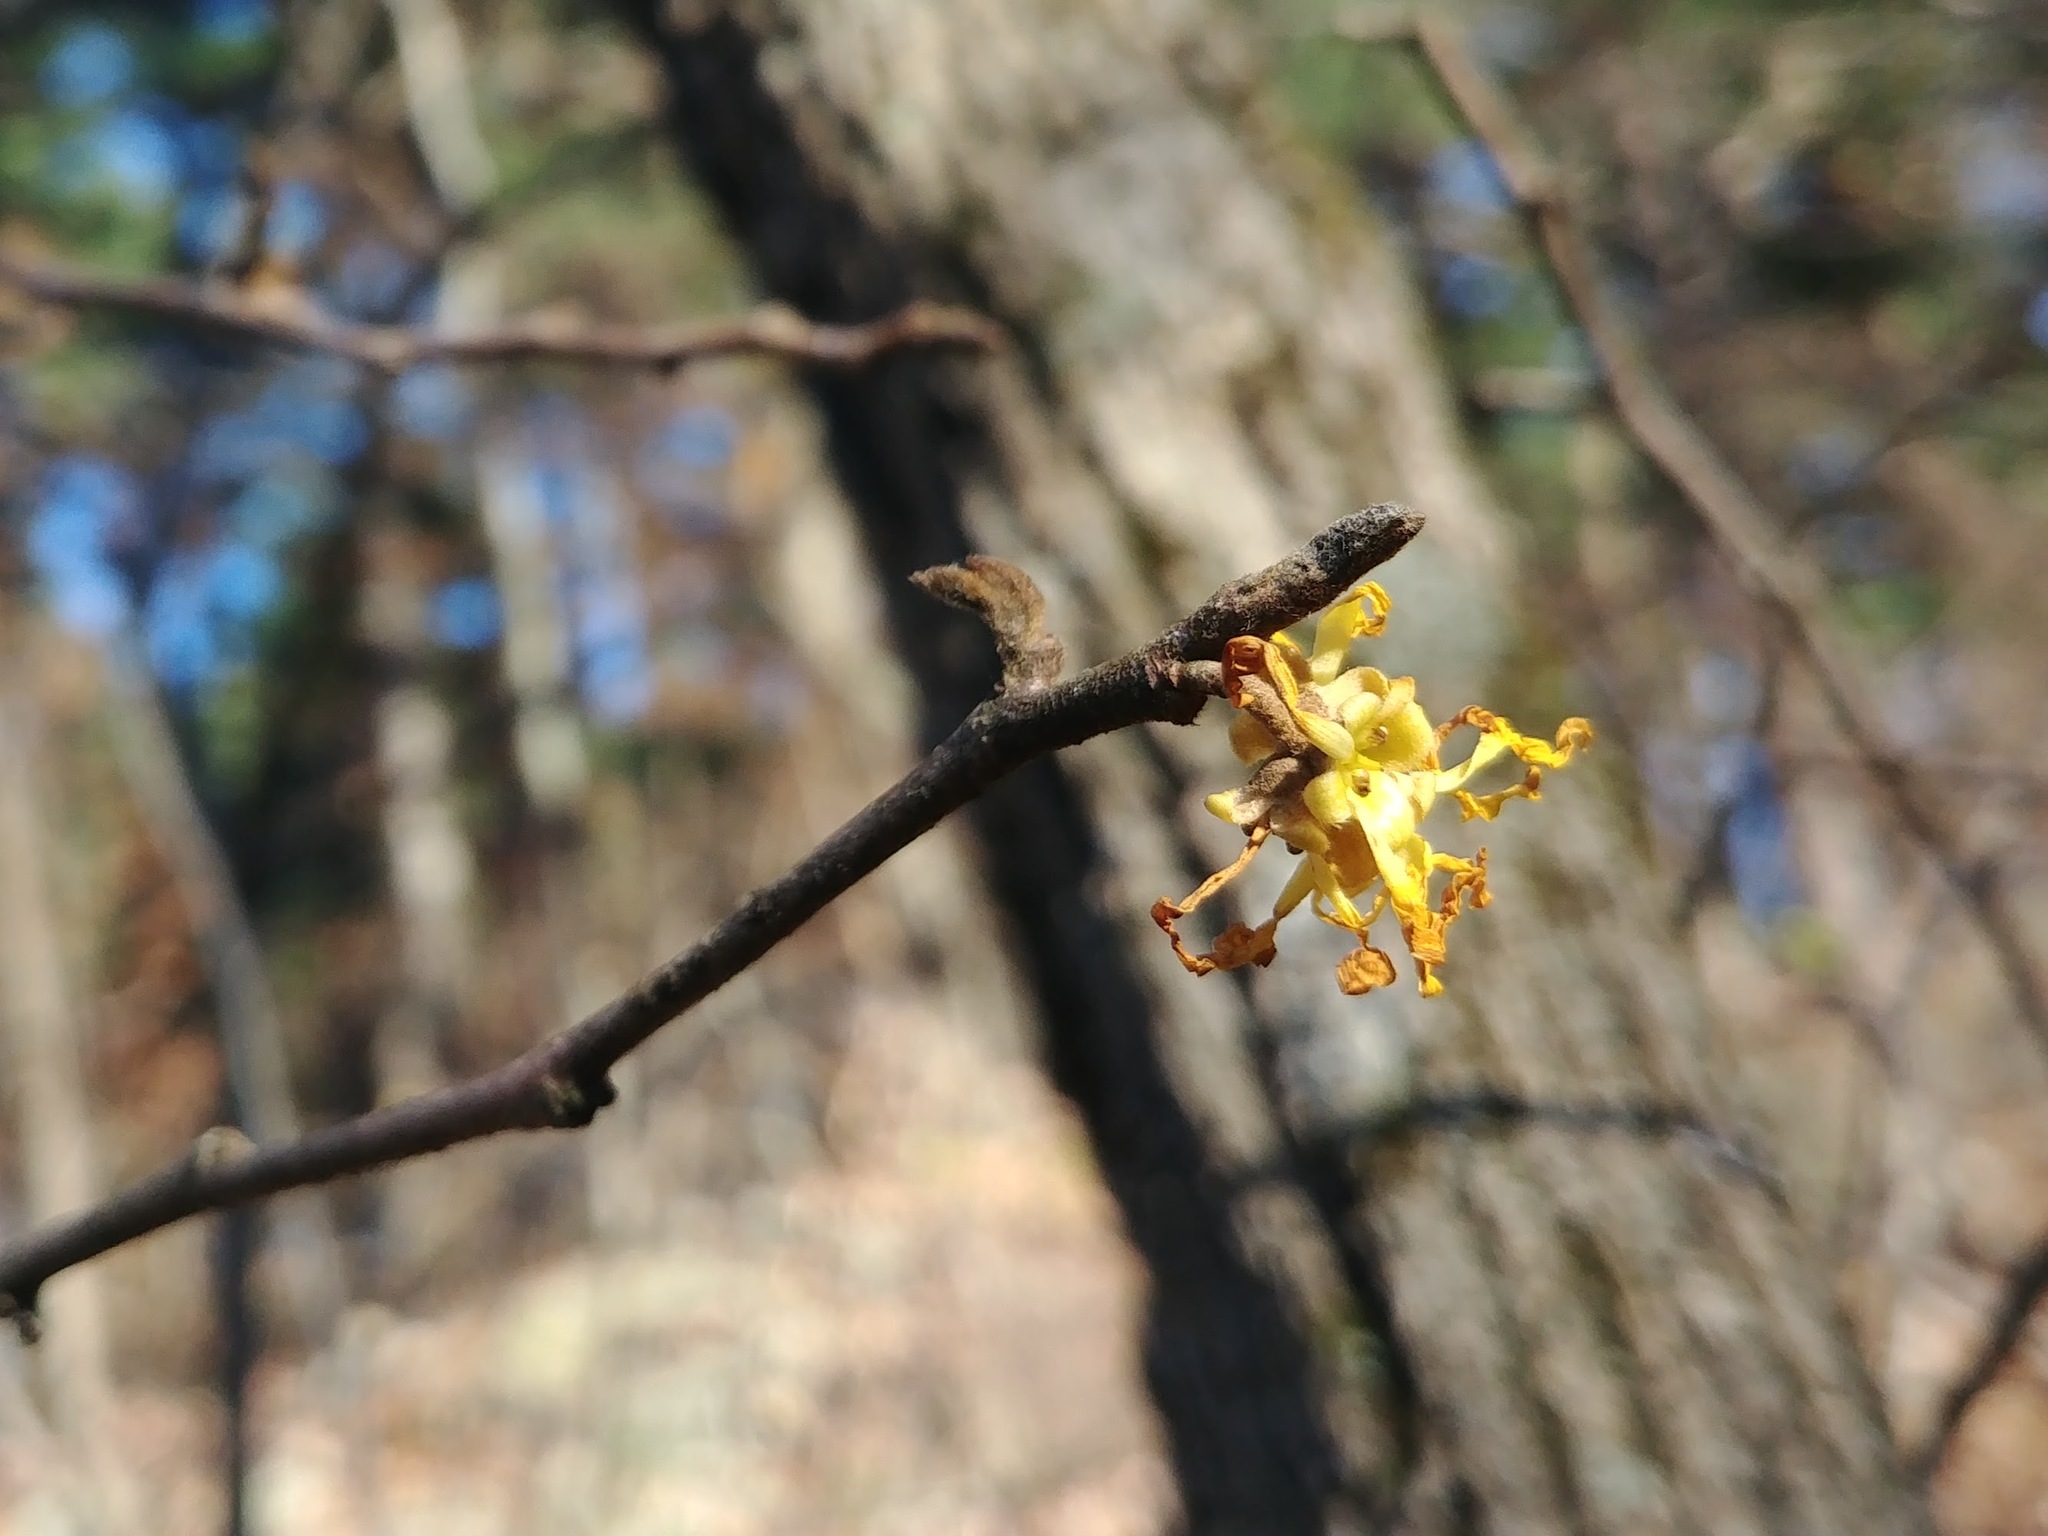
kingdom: Plantae
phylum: Tracheophyta
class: Magnoliopsida
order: Saxifragales
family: Hamamelidaceae
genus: Hamamelis
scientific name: Hamamelis virginiana
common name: Witch-hazel
